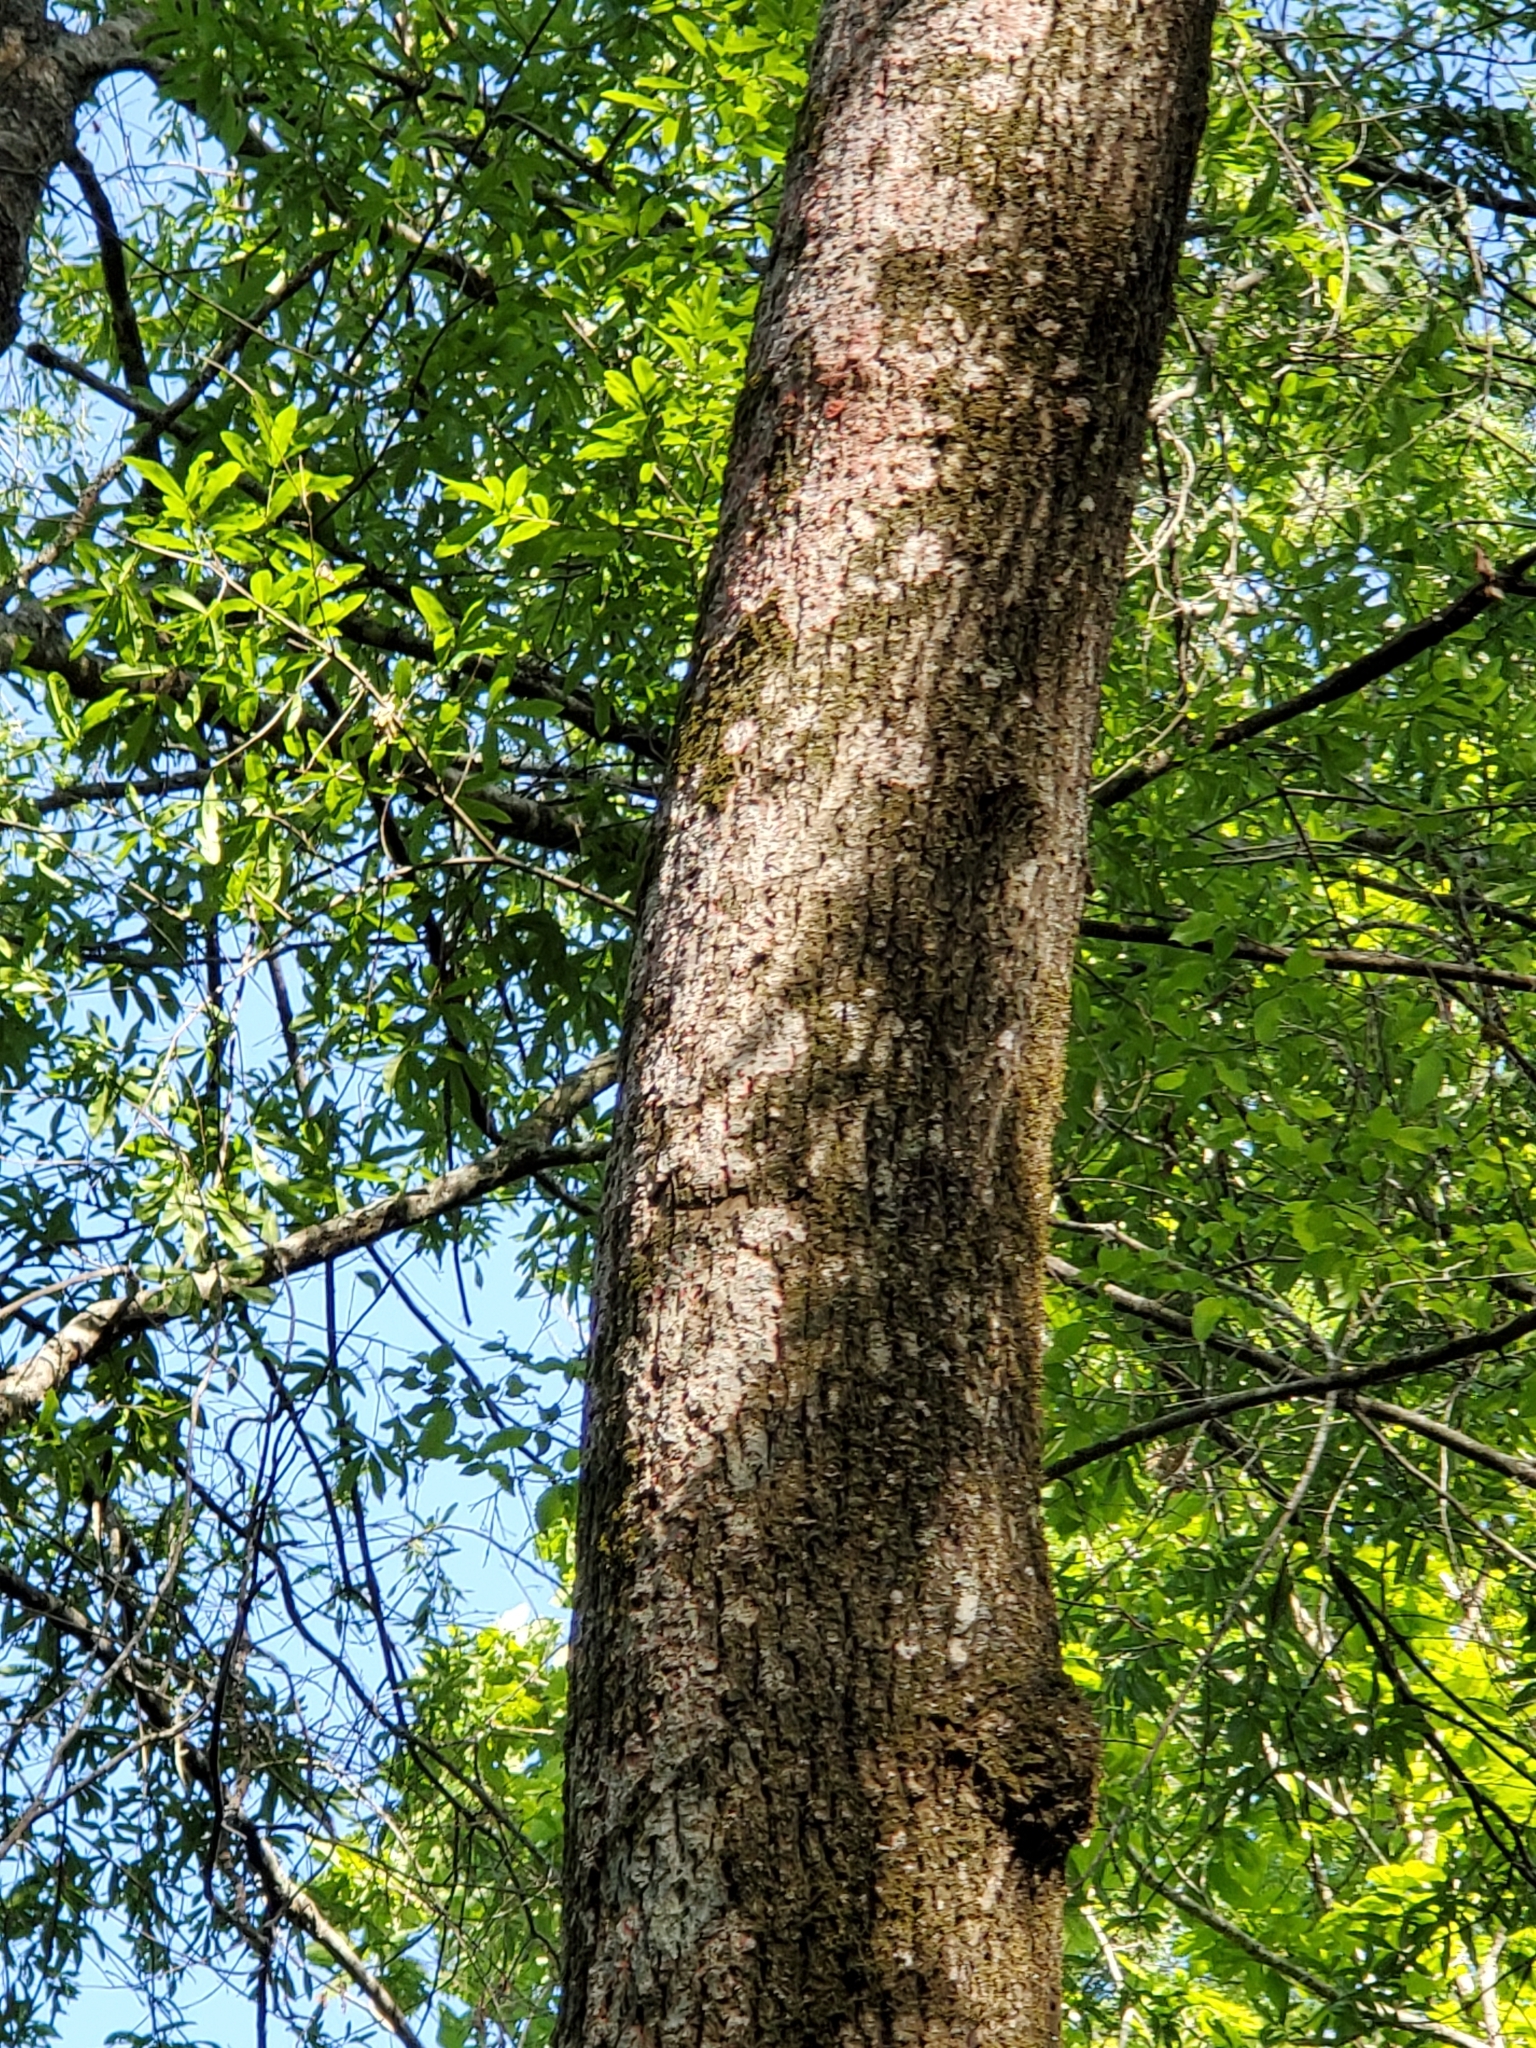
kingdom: Fungi
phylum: Ascomycota
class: Arthoniomycetes
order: Arthoniales
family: Arthoniaceae
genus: Herpothallon
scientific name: Herpothallon rubrocinctum
